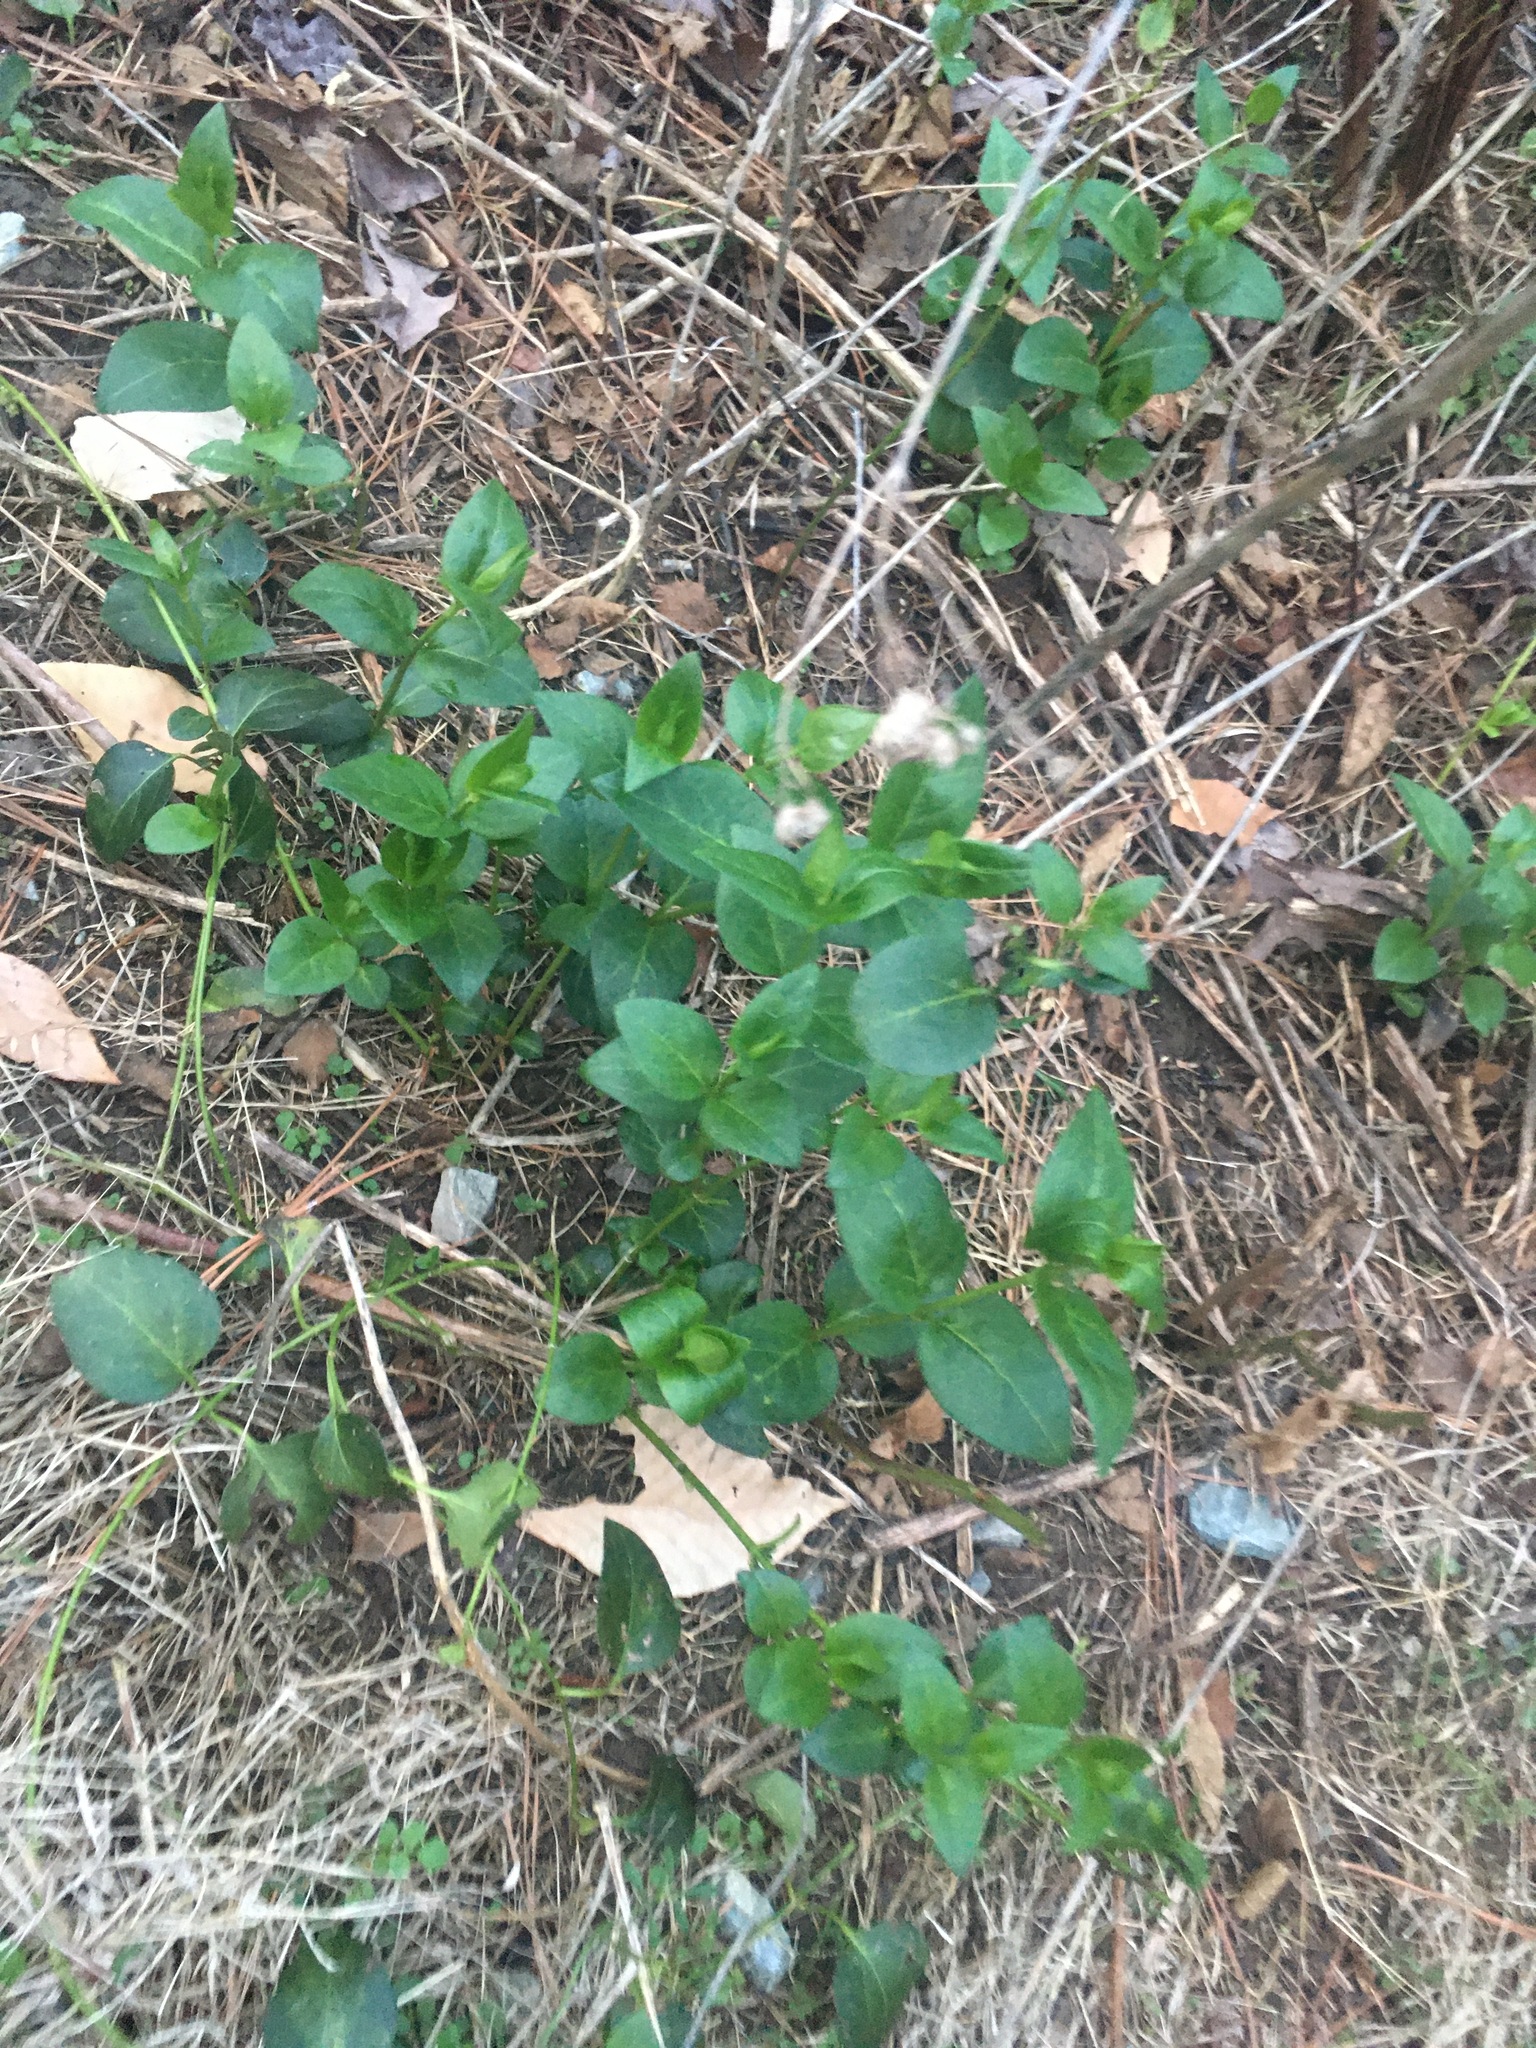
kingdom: Plantae
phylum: Tracheophyta
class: Magnoliopsida
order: Gentianales
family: Apocynaceae
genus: Vinca
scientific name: Vinca major
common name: Greater periwinkle
